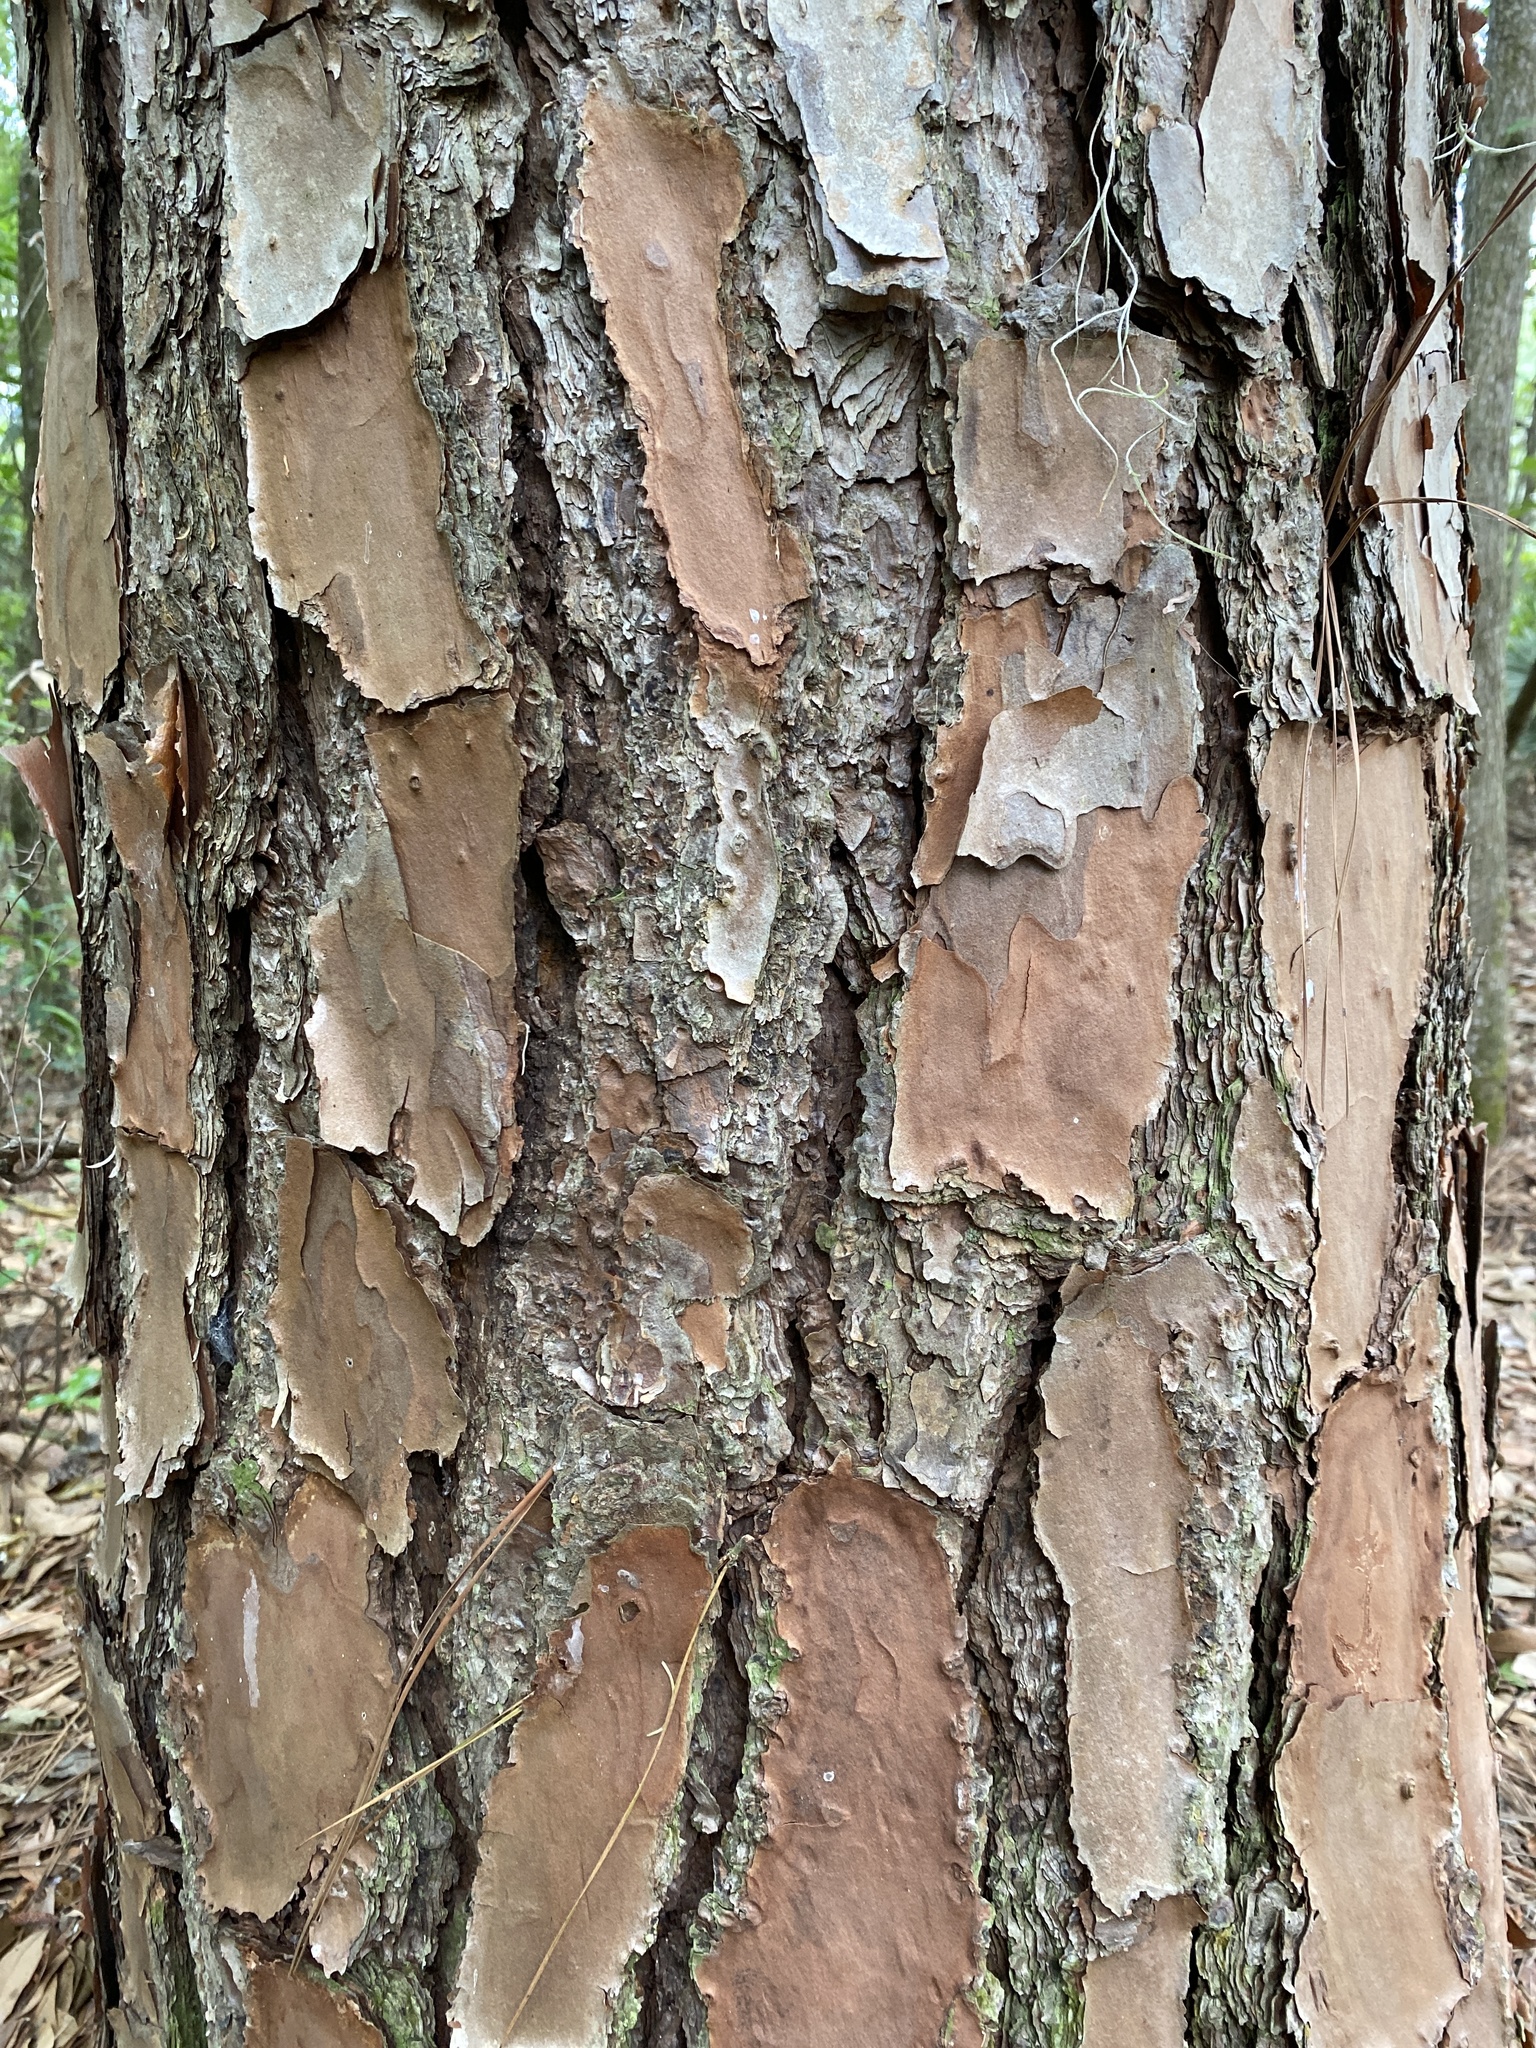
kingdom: Plantae
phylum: Tracheophyta
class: Pinopsida
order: Pinales
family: Pinaceae
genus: Pinus
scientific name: Pinus elliottii
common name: Slash pine
